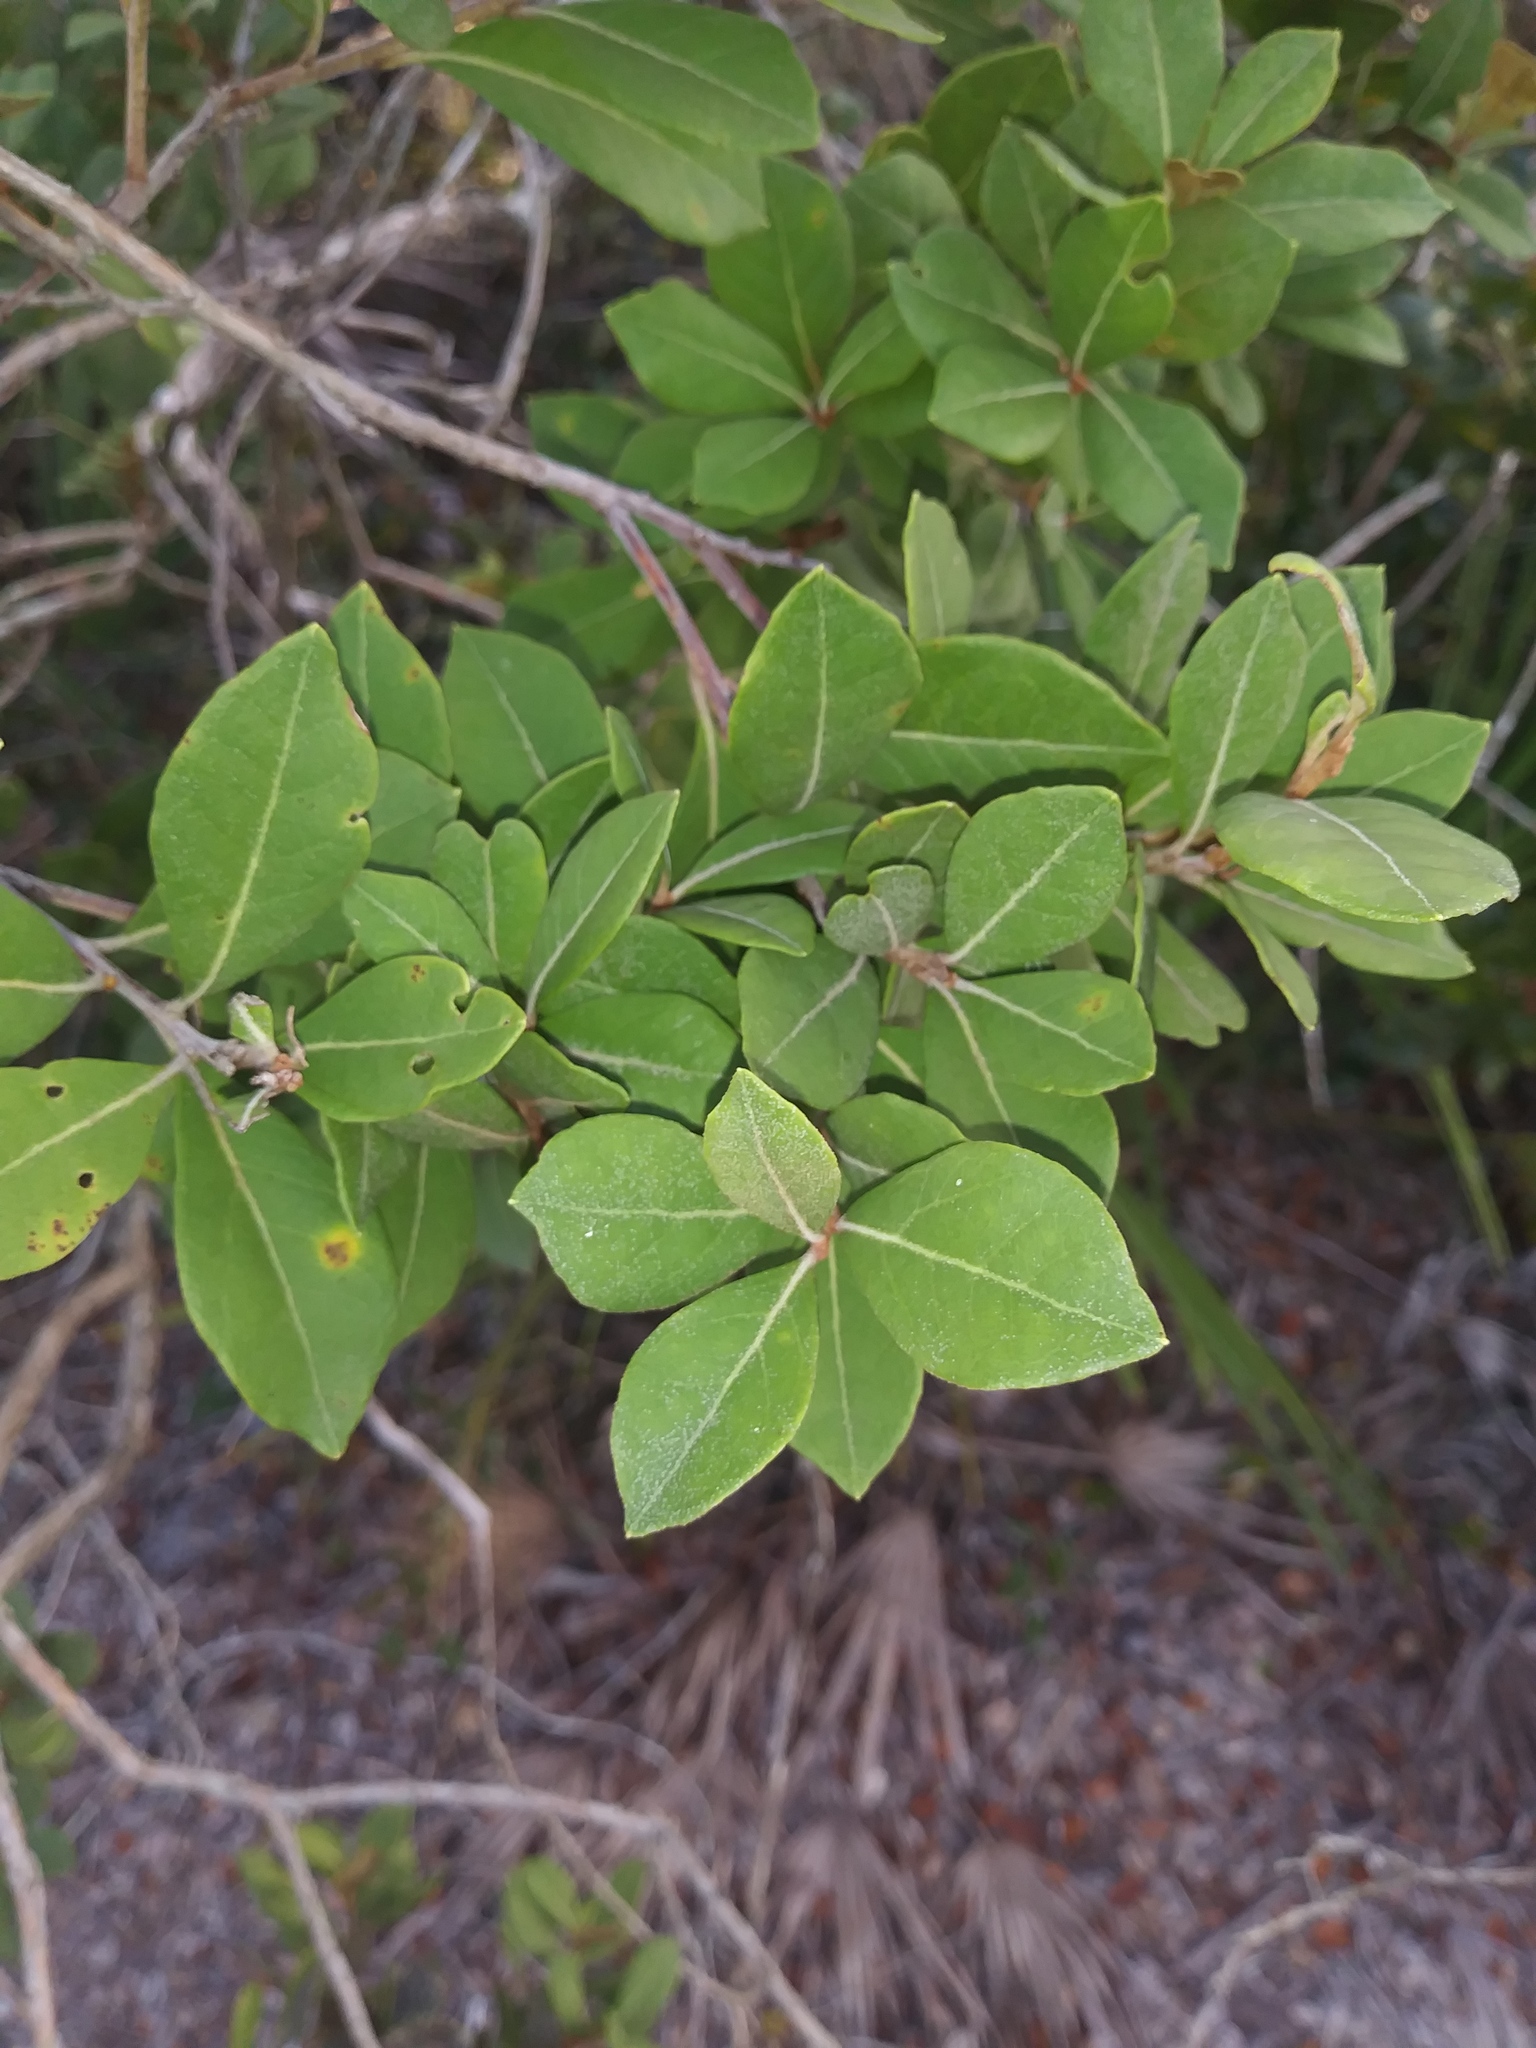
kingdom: Plantae
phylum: Tracheophyta
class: Magnoliopsida
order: Ericales
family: Ericaceae
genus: Lyonia
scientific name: Lyonia ferruginea
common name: Rusty lyonia
